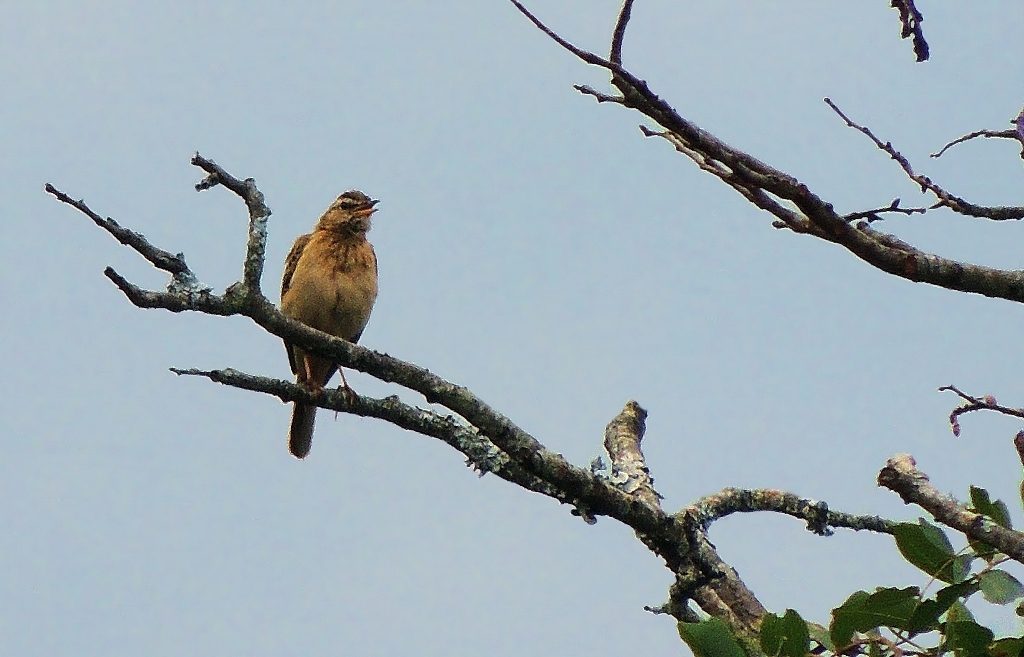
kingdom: Animalia
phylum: Chordata
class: Aves
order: Passeriformes
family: Motacillidae
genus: Anthus
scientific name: Anthus nyassae
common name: Wood pipit
